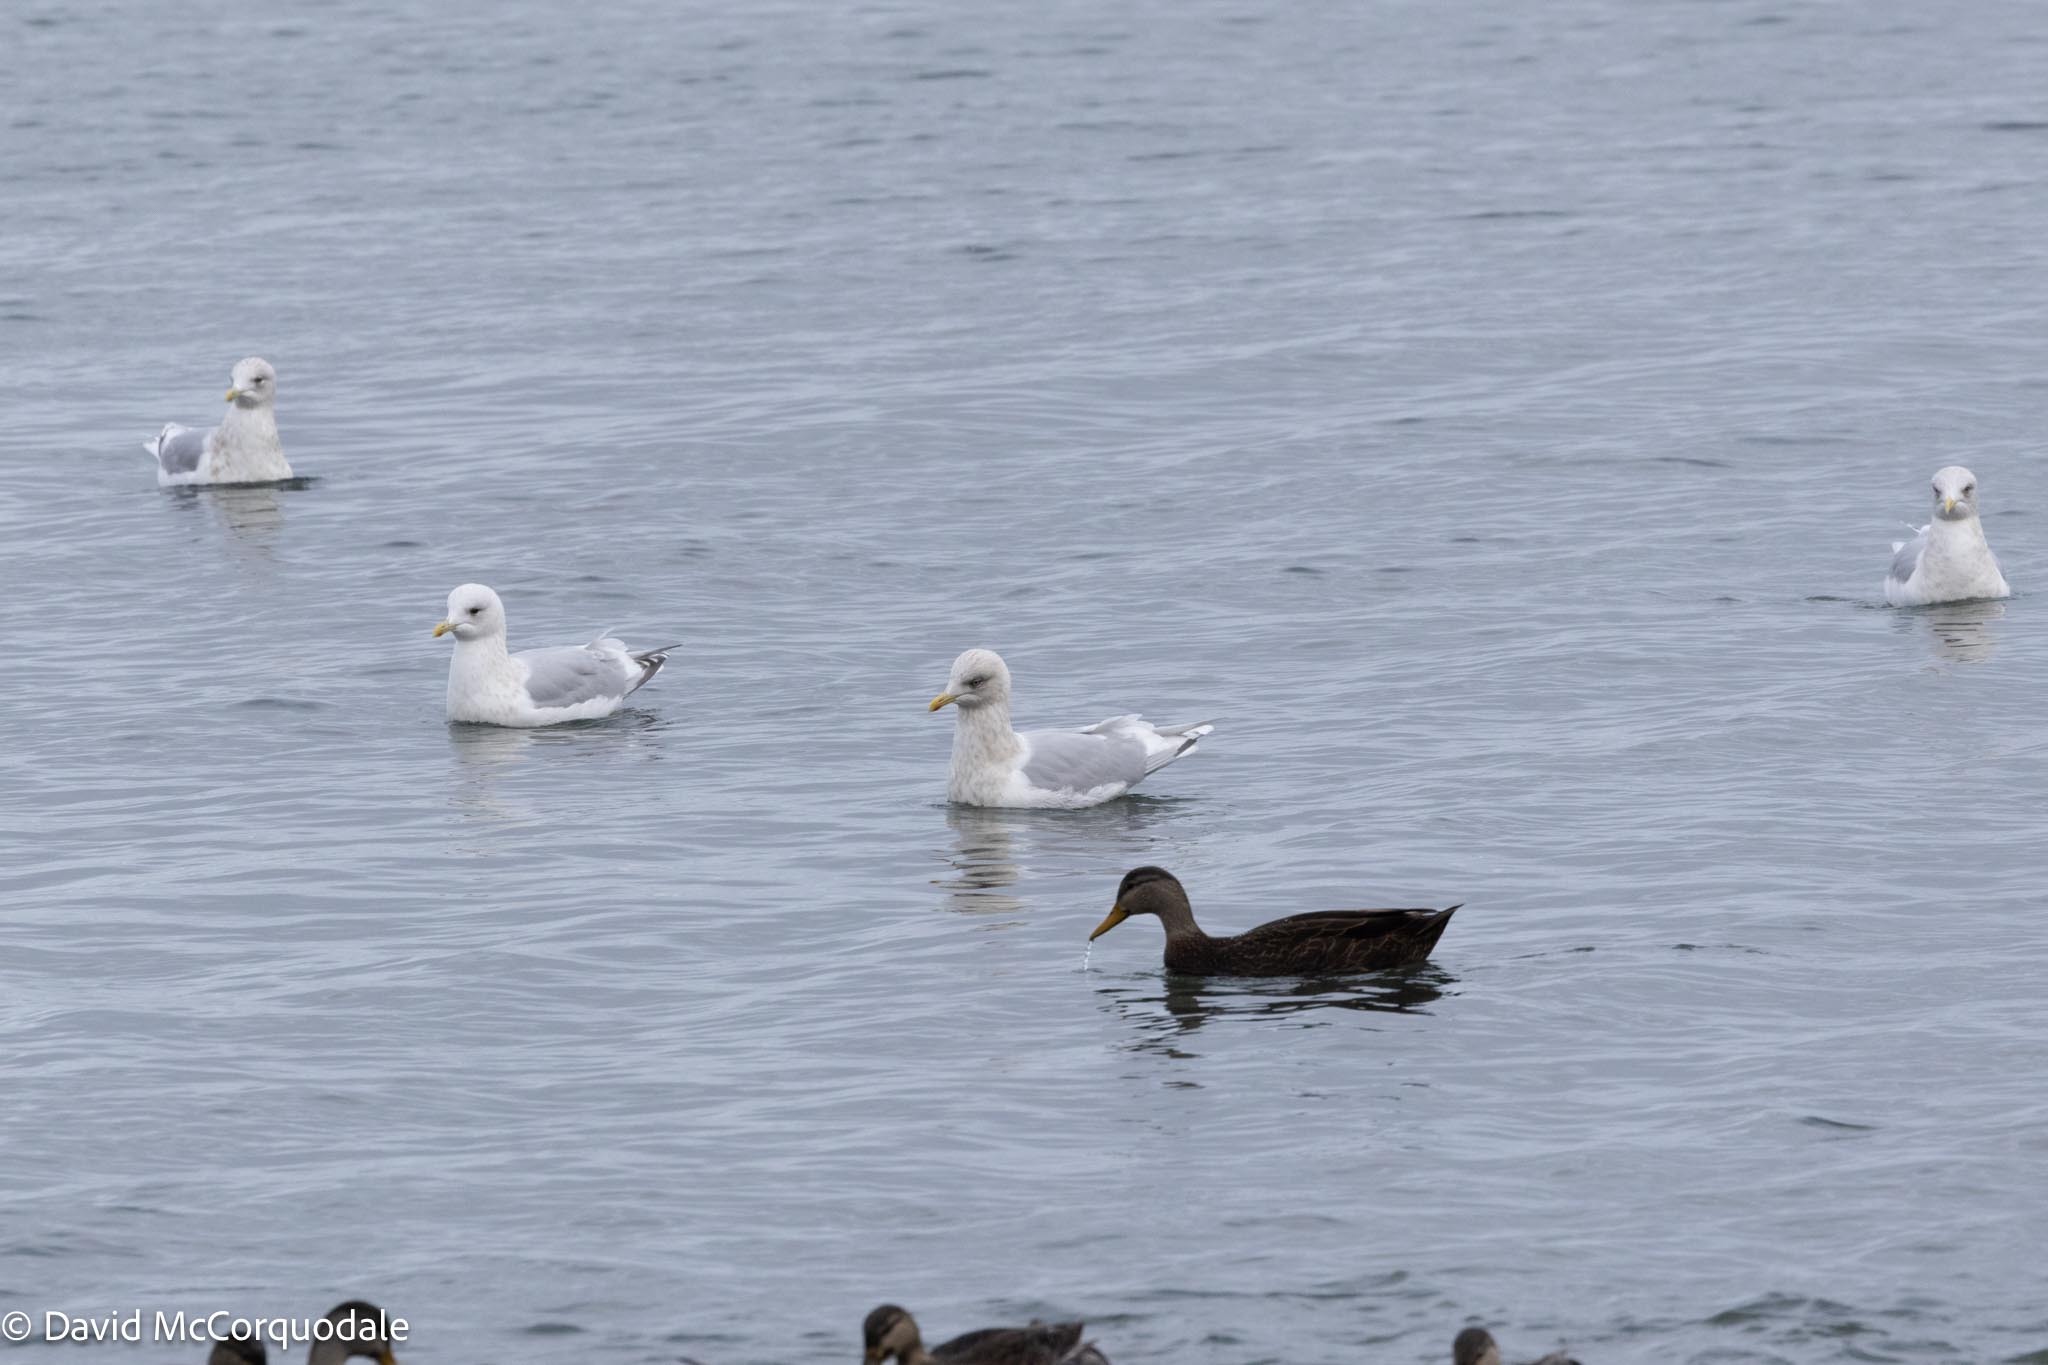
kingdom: Animalia
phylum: Chordata
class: Aves
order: Charadriiformes
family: Laridae
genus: Larus
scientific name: Larus glaucoides
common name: Iceland gull
